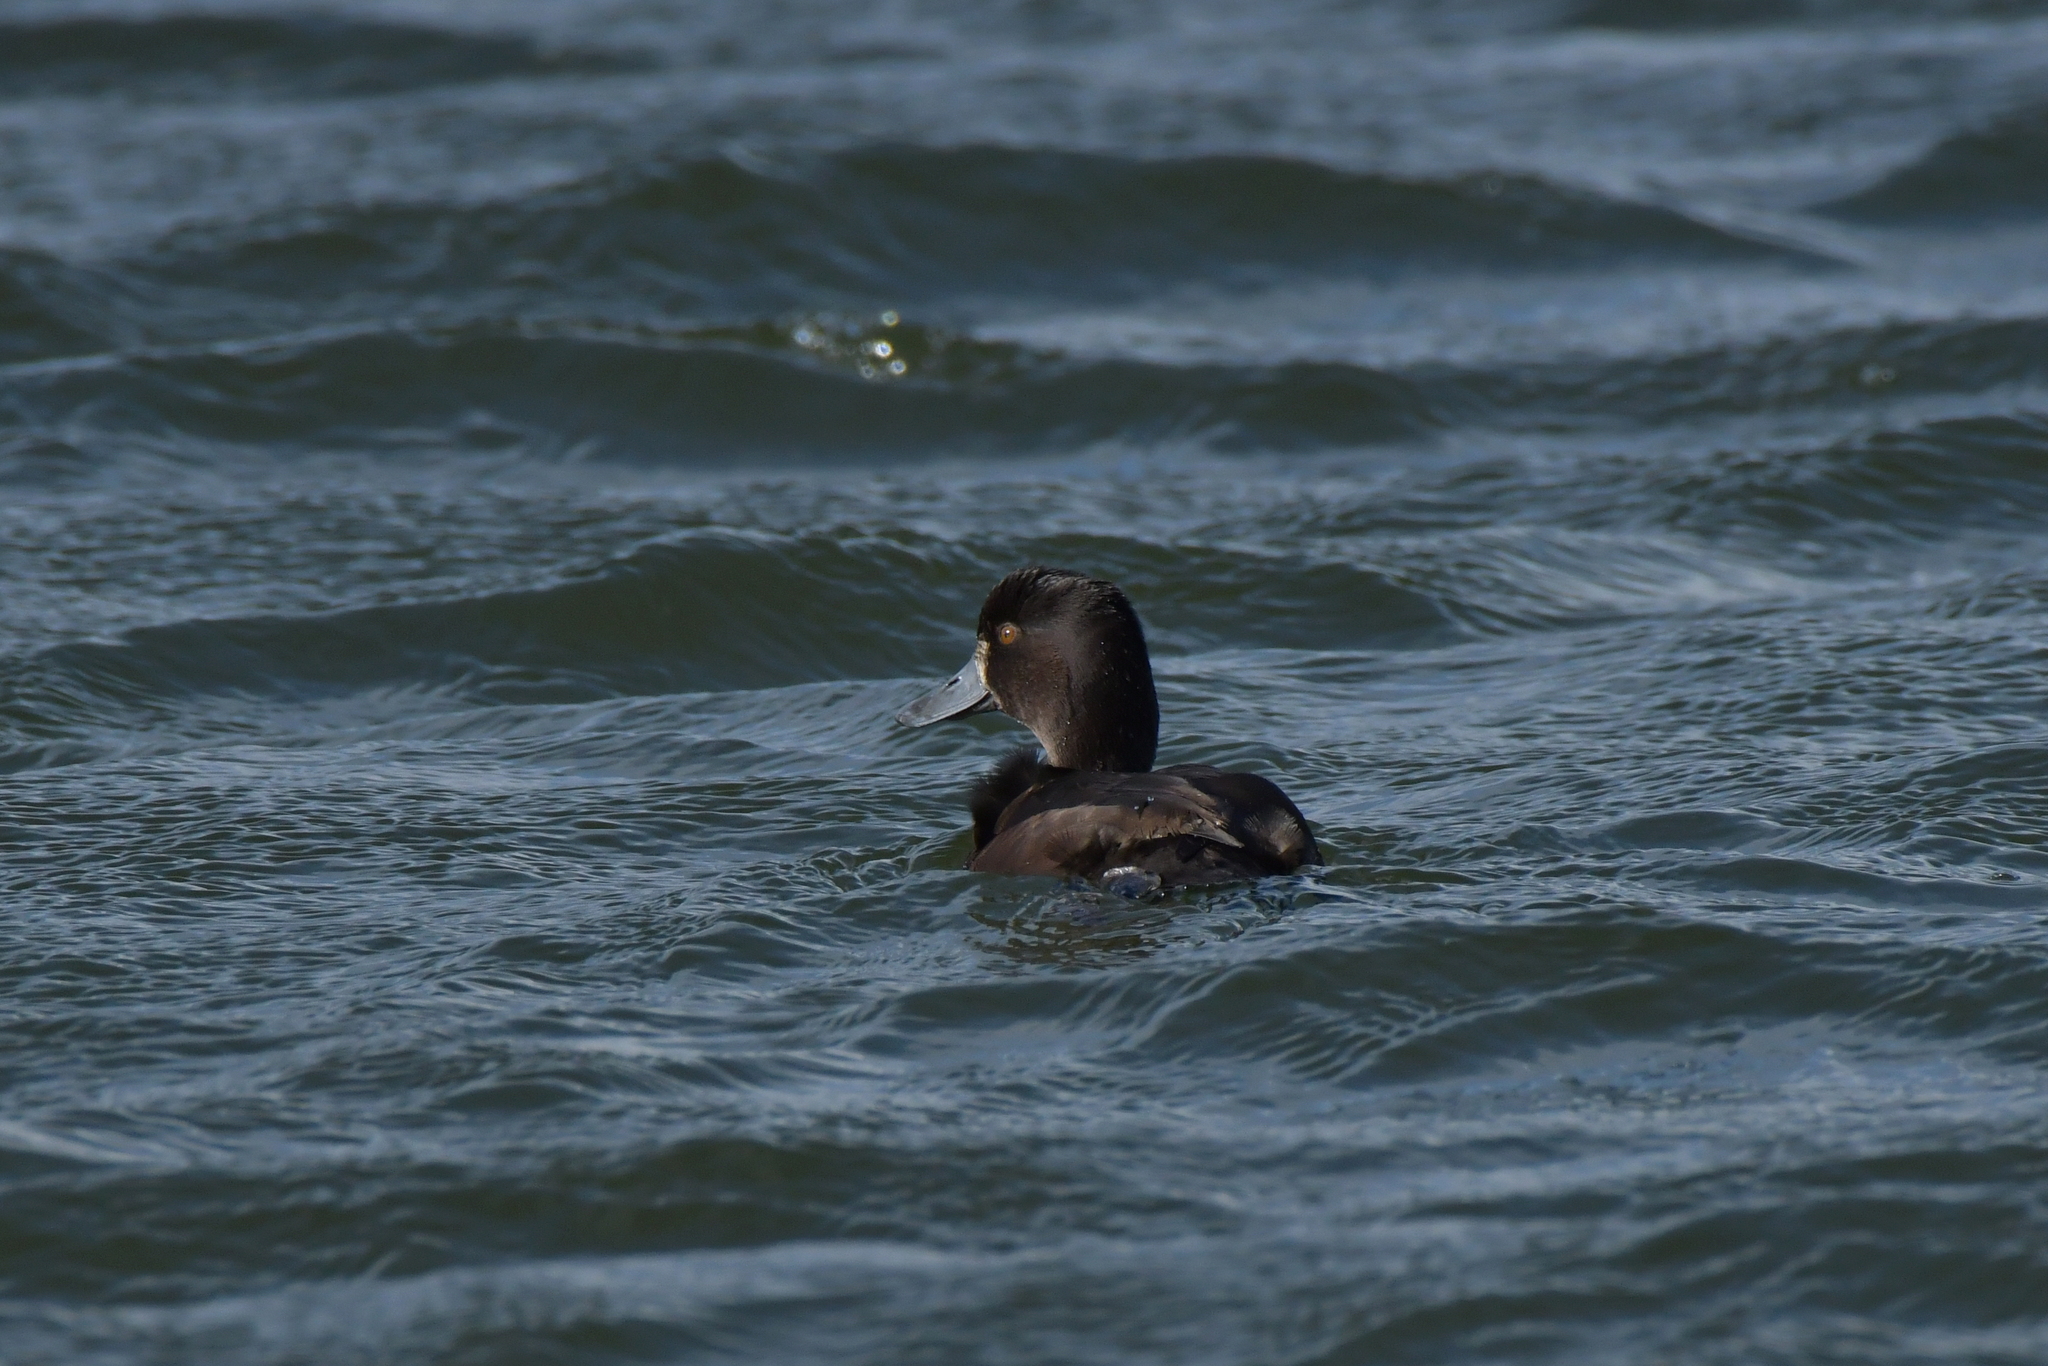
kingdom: Animalia
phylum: Chordata
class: Aves
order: Anseriformes
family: Anatidae
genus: Aythya
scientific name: Aythya novaeseelandiae
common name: New zealand scaup
